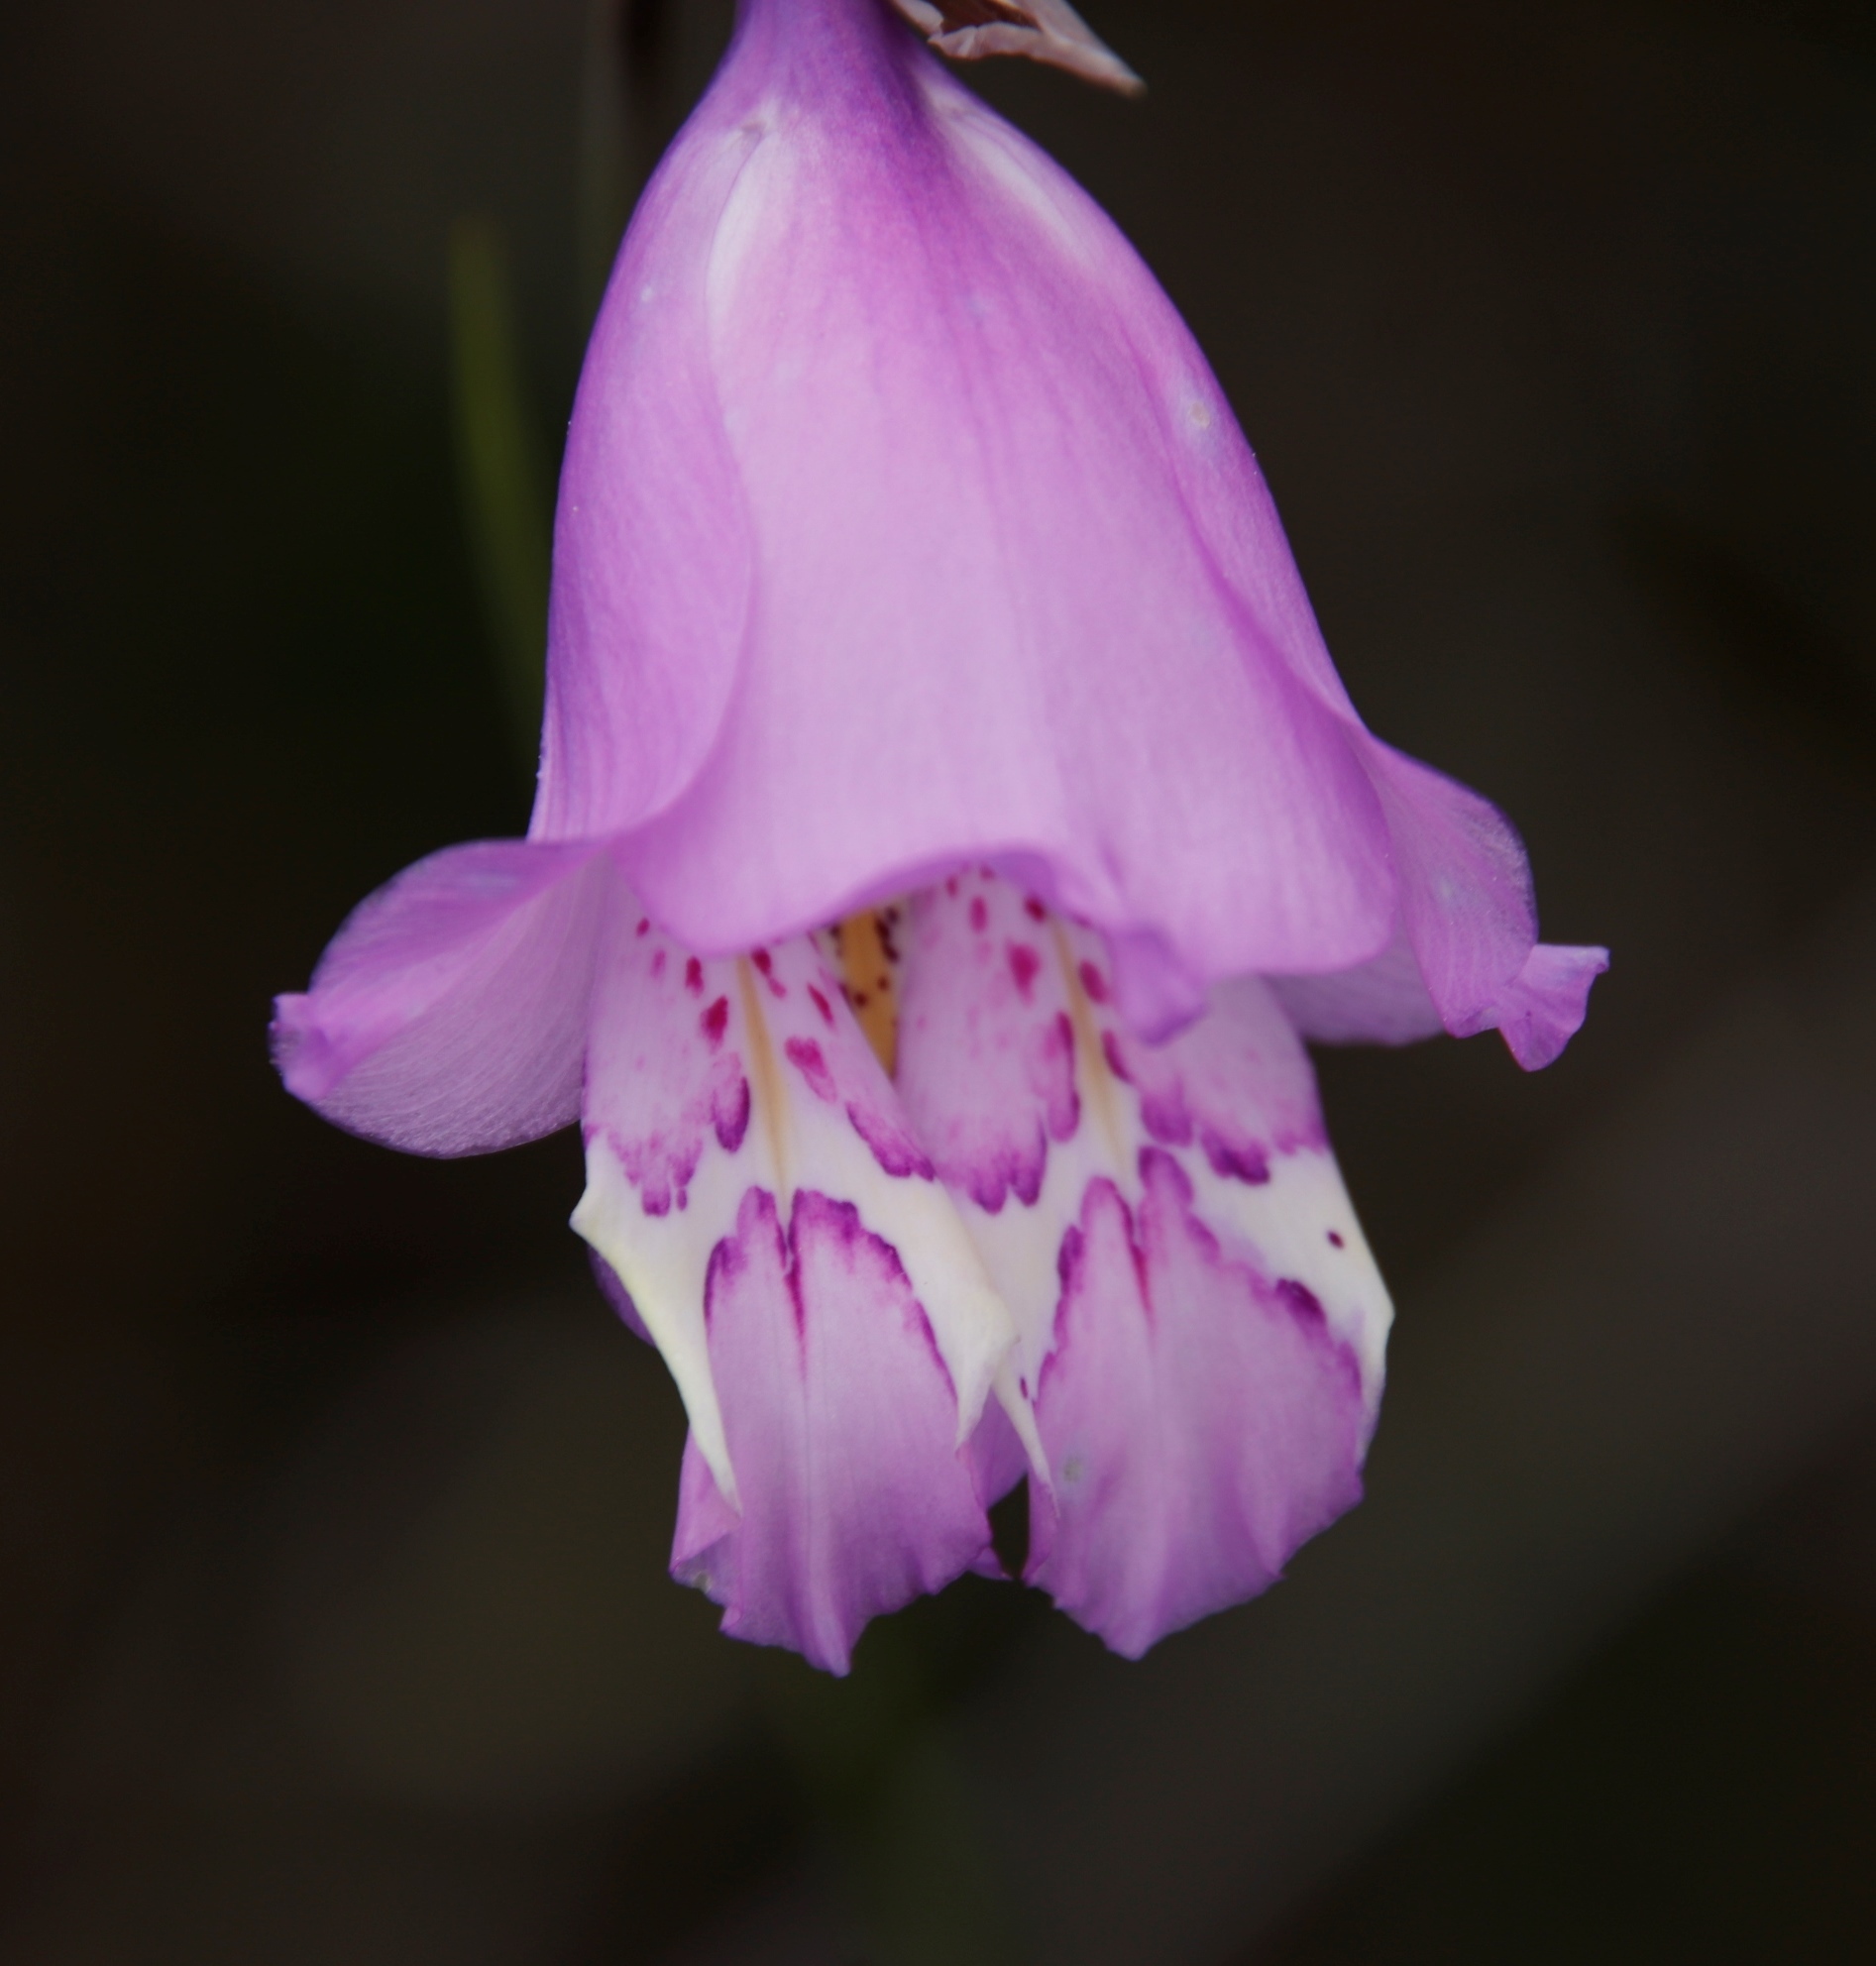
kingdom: Plantae
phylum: Tracheophyta
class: Liliopsida
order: Asparagales
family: Iridaceae
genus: Gladiolus
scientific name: Gladiolus bullatus
